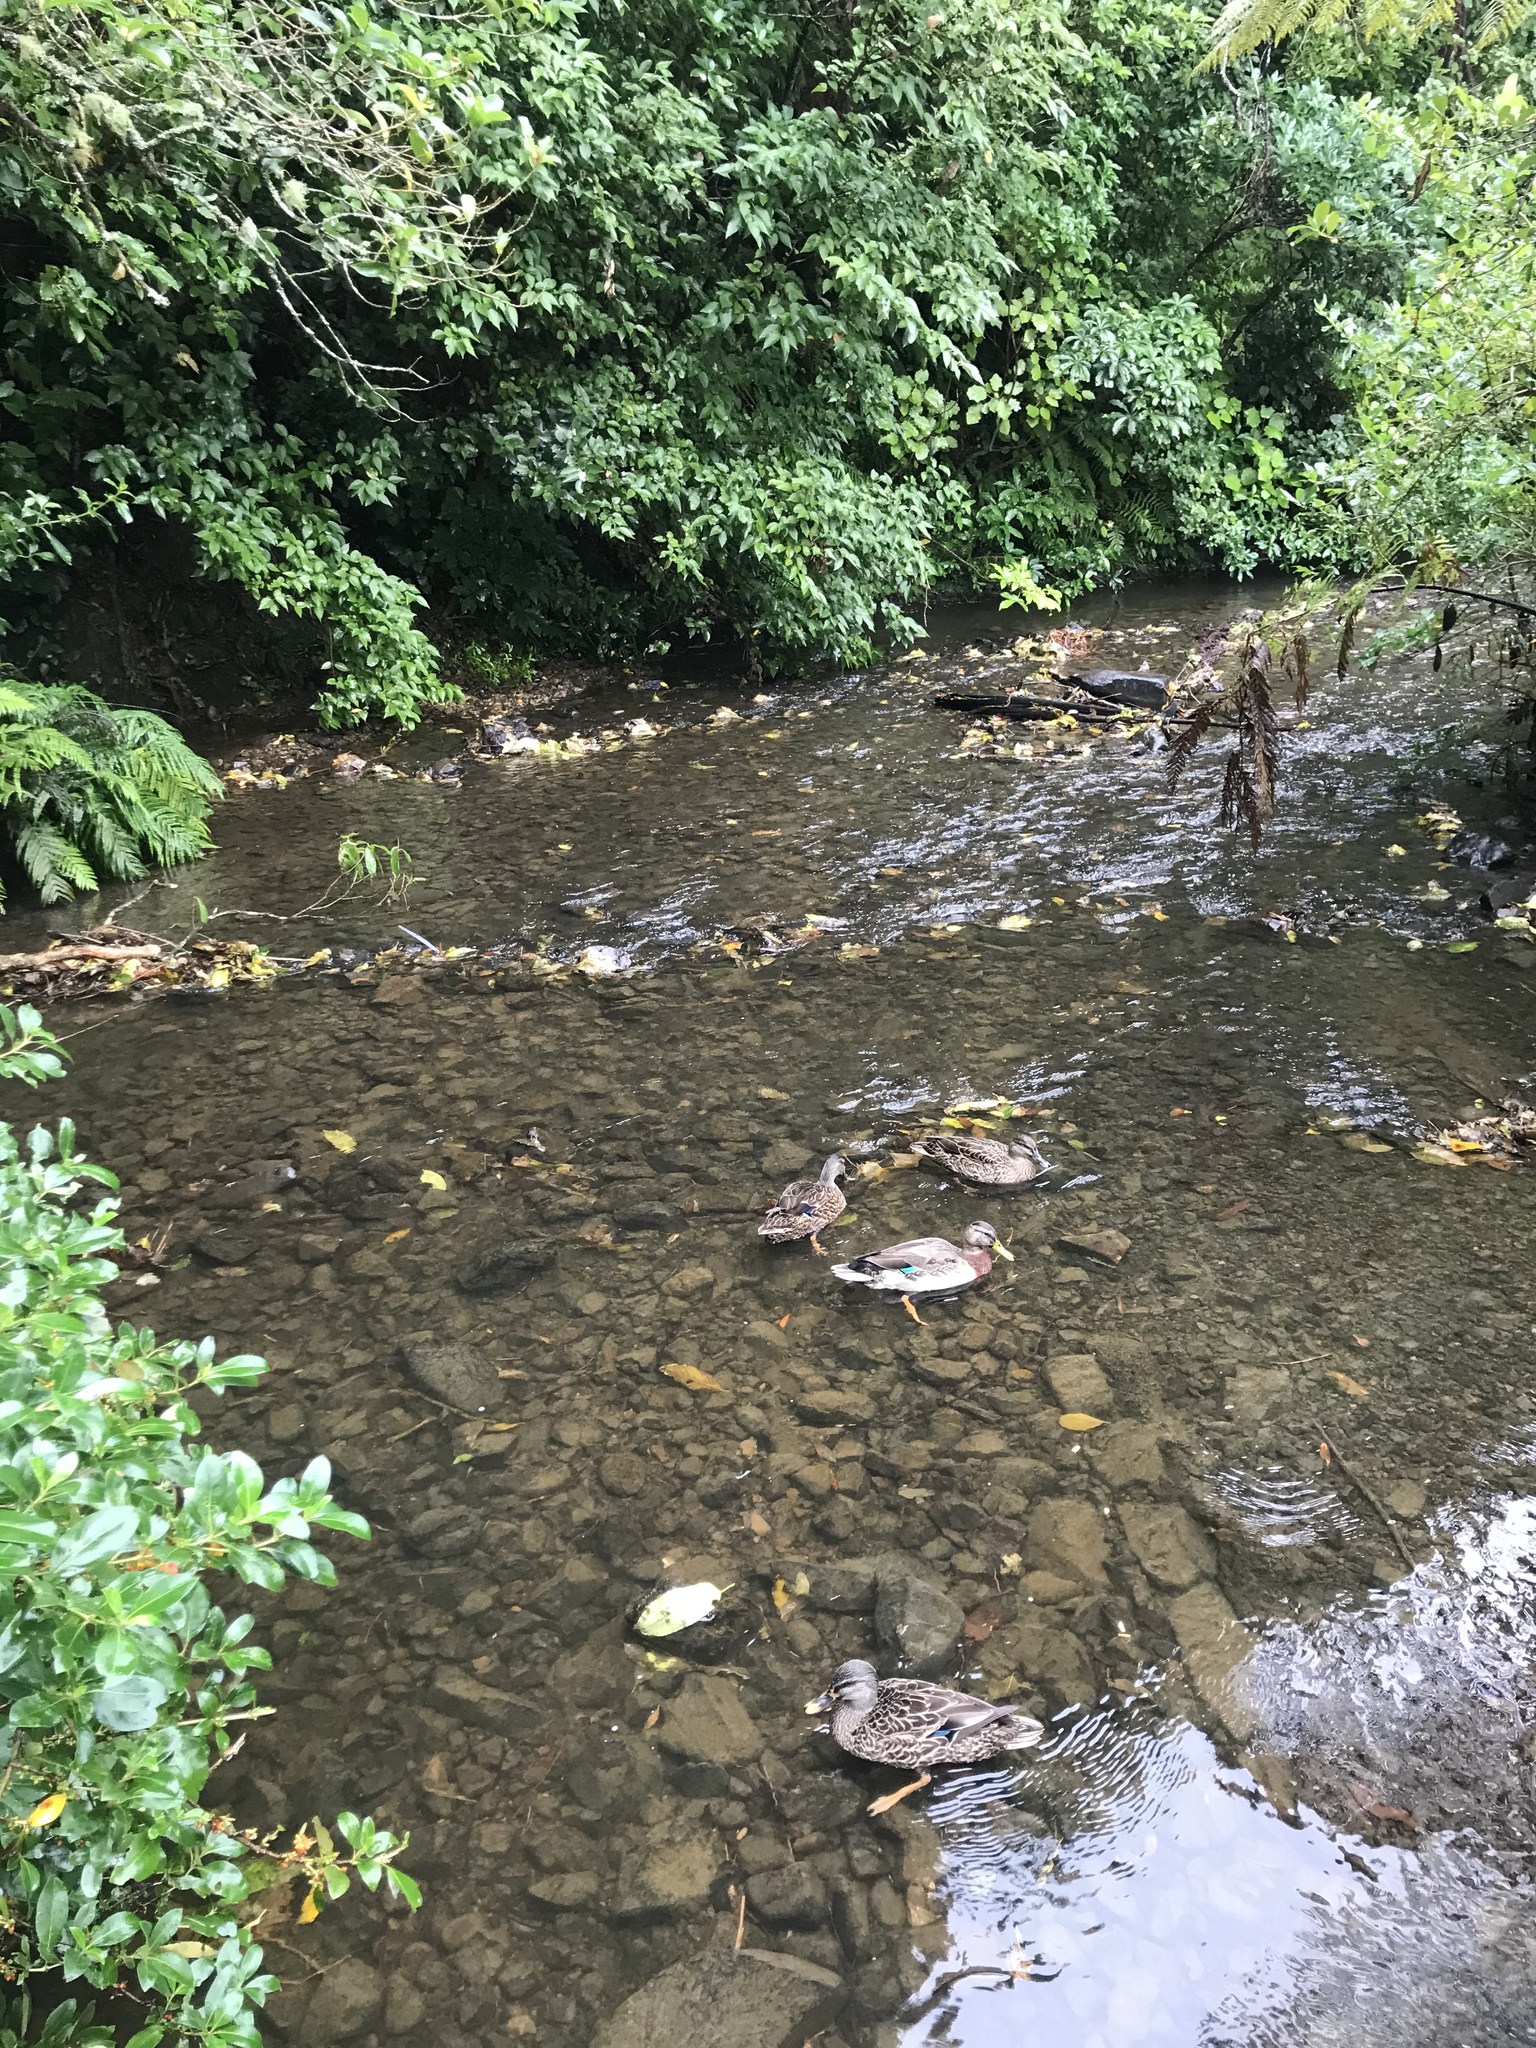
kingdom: Animalia
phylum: Chordata
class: Aves
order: Anseriformes
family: Anatidae
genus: Anas
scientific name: Anas
